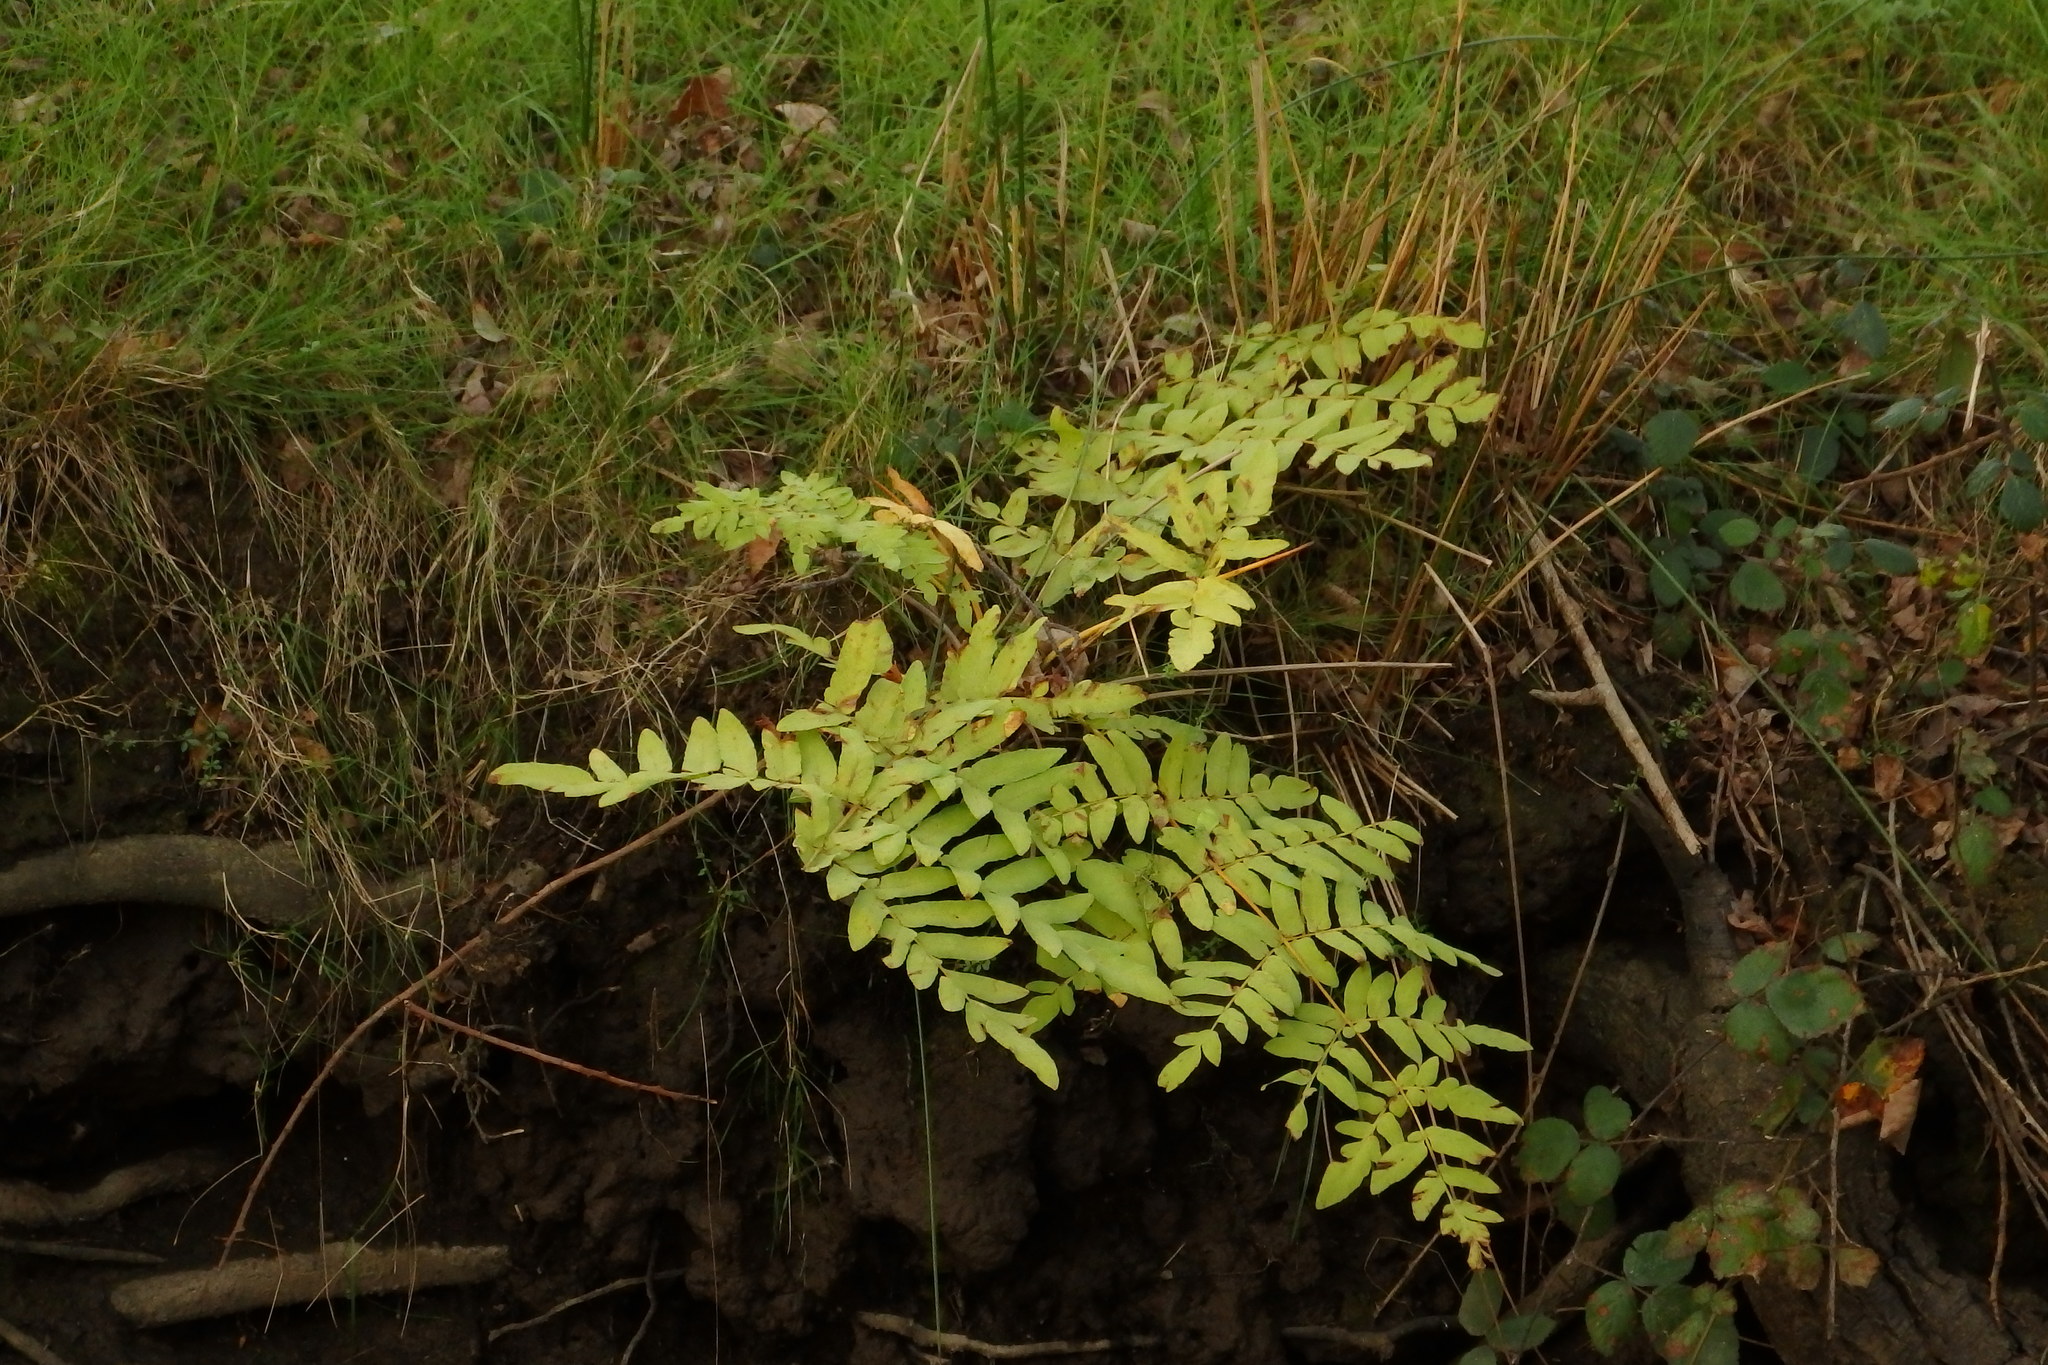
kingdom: Plantae
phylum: Tracheophyta
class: Polypodiopsida
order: Osmundales
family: Osmundaceae
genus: Osmunda
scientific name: Osmunda regalis
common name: Royal fern
